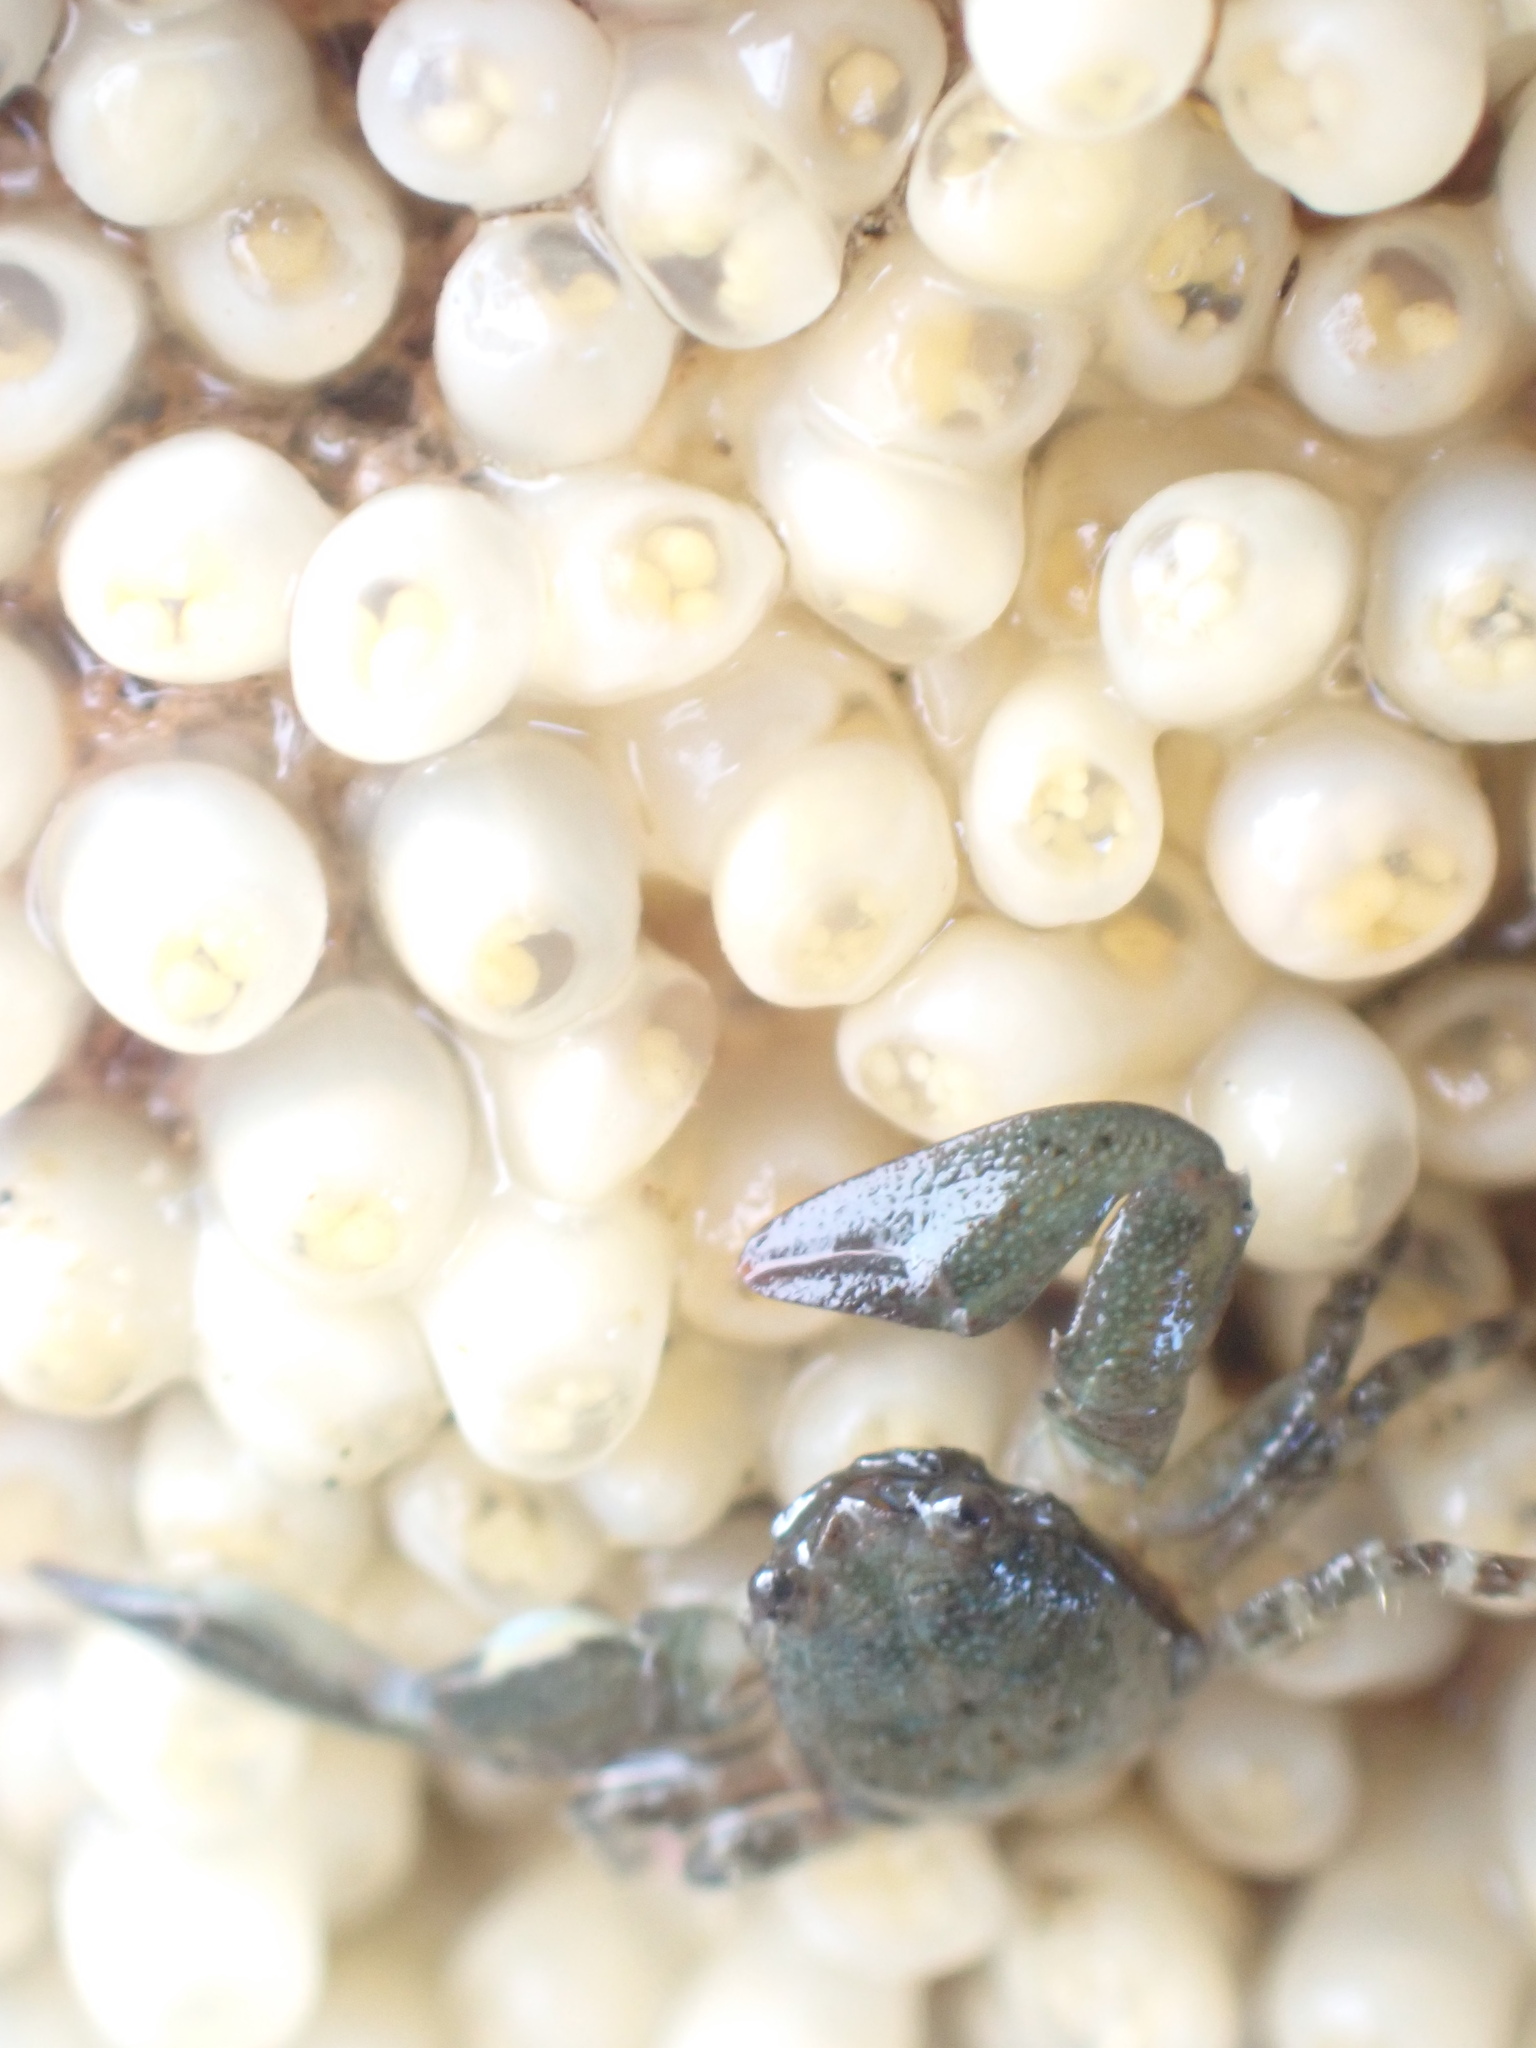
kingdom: Animalia
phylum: Arthropoda
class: Malacostraca
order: Decapoda
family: Porcellanidae
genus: Petrolisthes
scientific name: Petrolisthes elongatus
